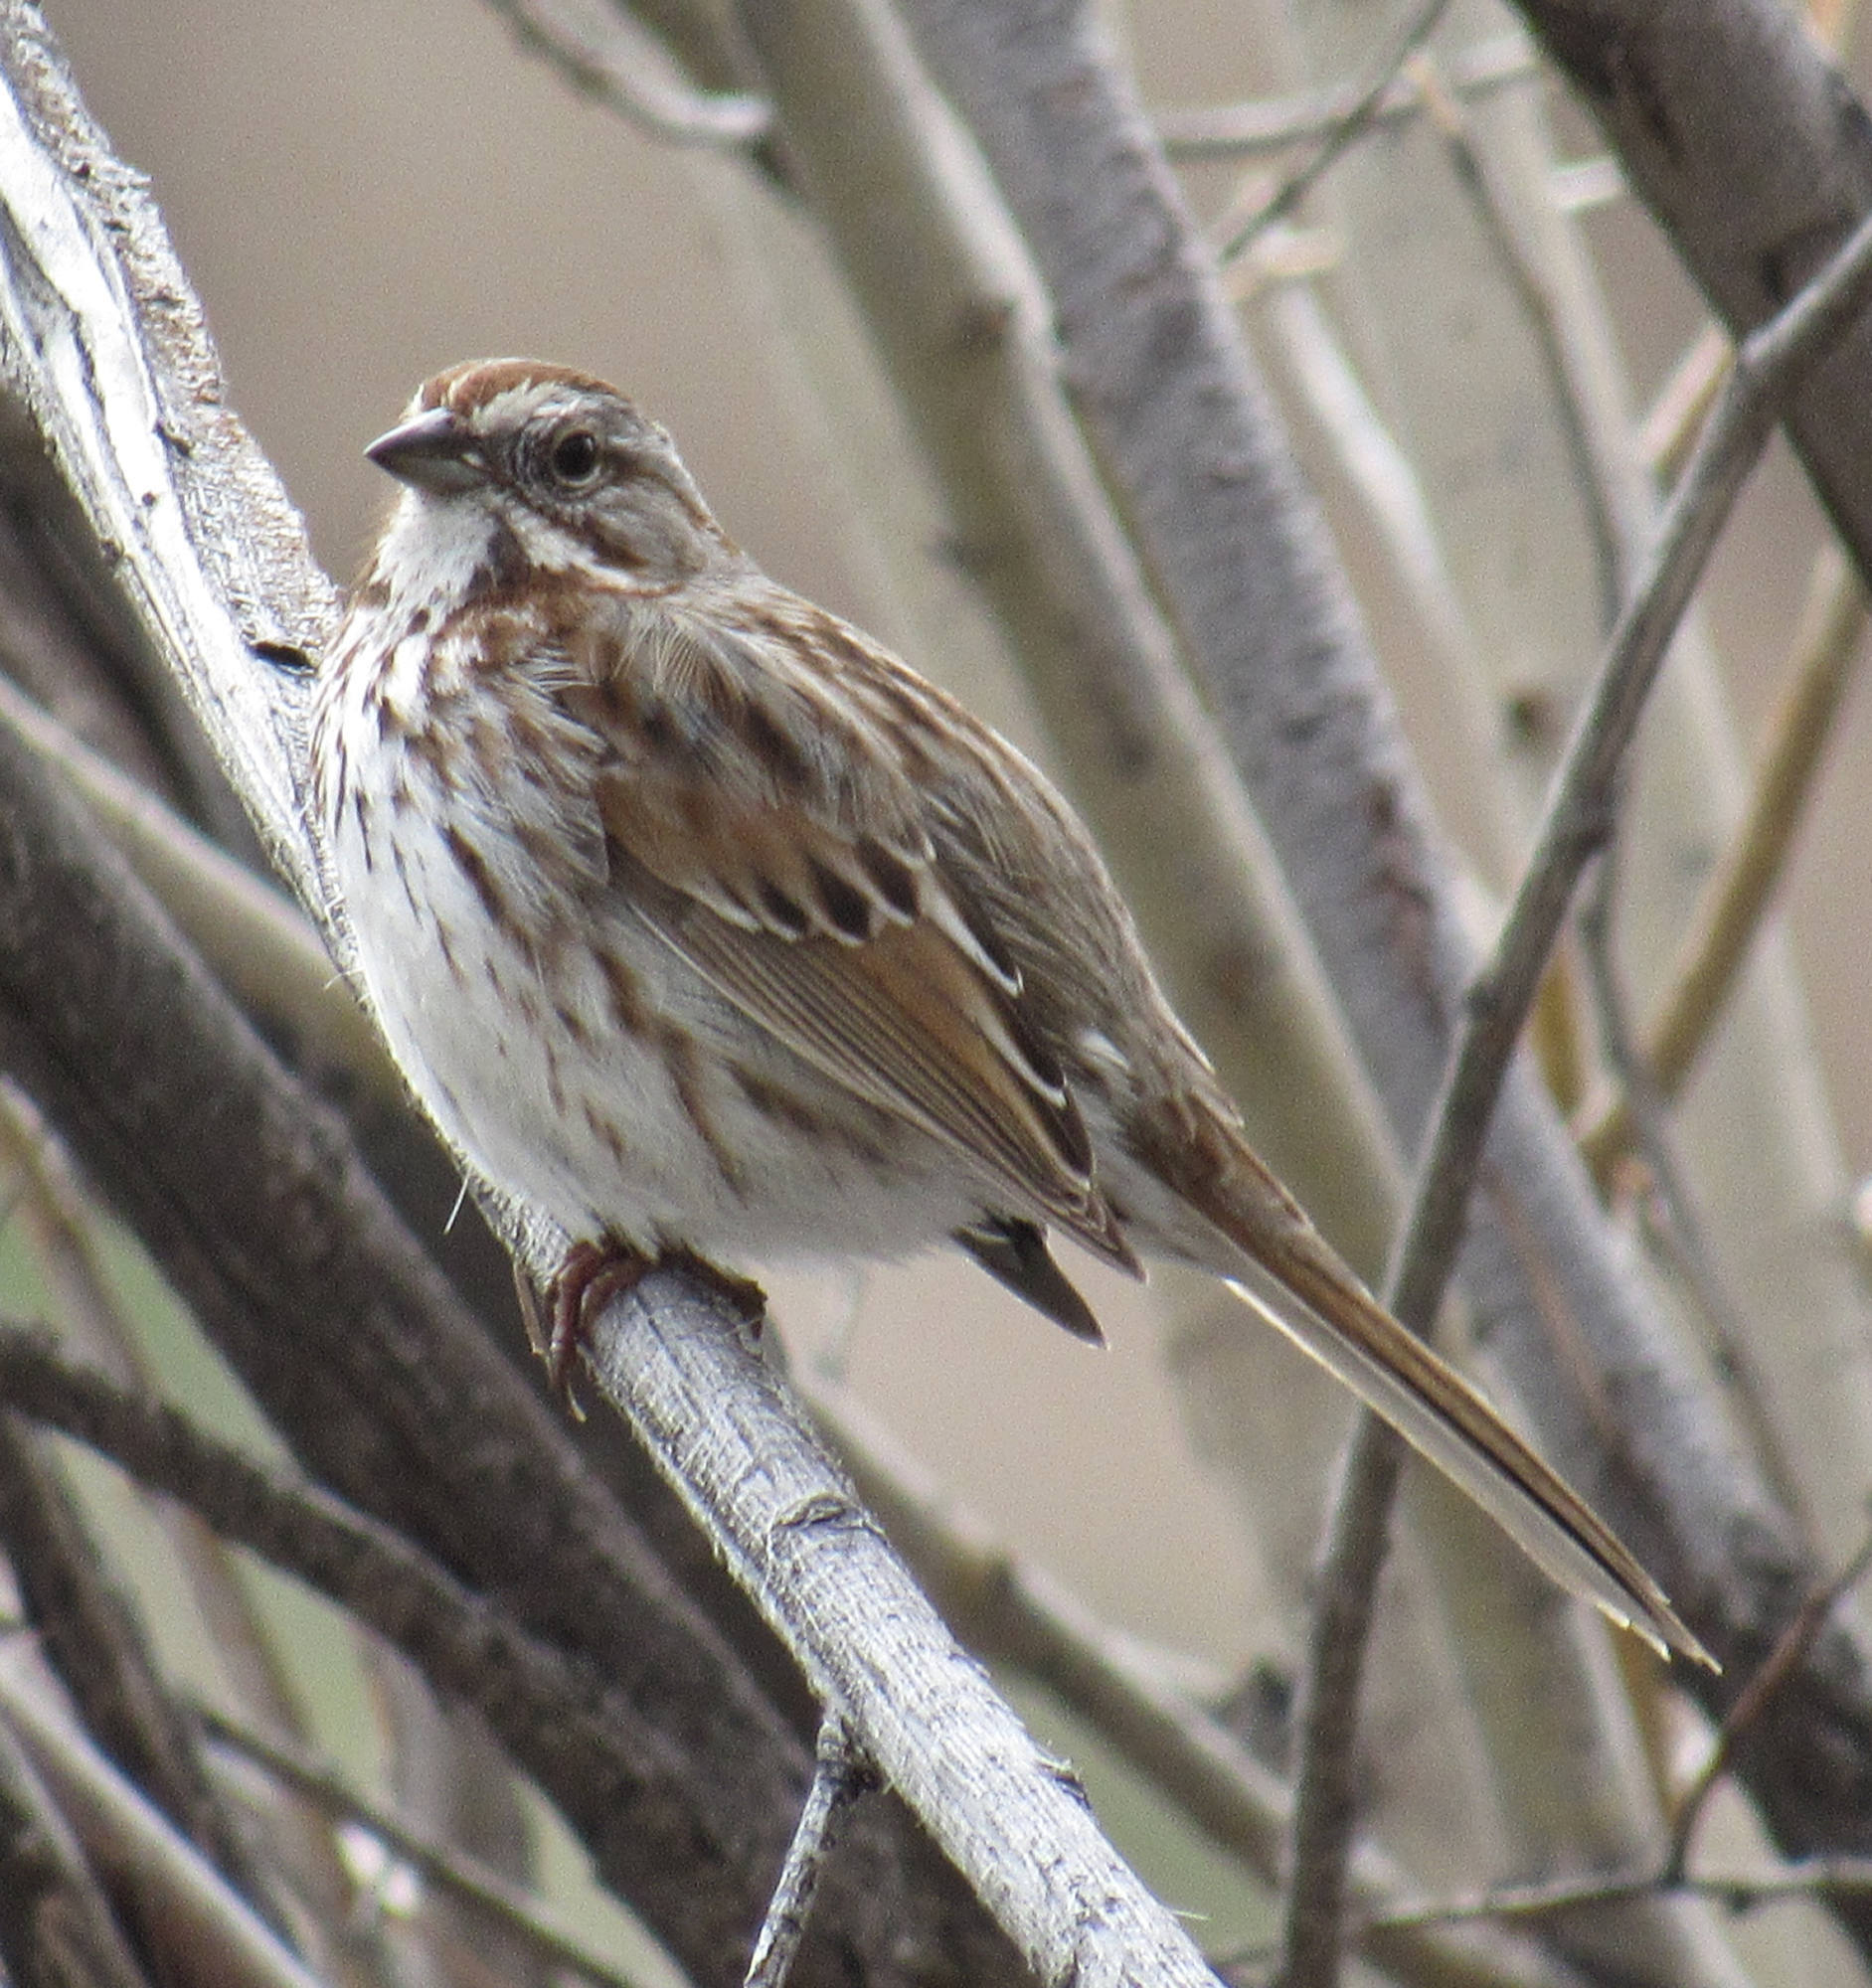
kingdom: Animalia
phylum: Chordata
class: Aves
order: Passeriformes
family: Passerellidae
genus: Melospiza
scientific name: Melospiza melodia
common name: Song sparrow
